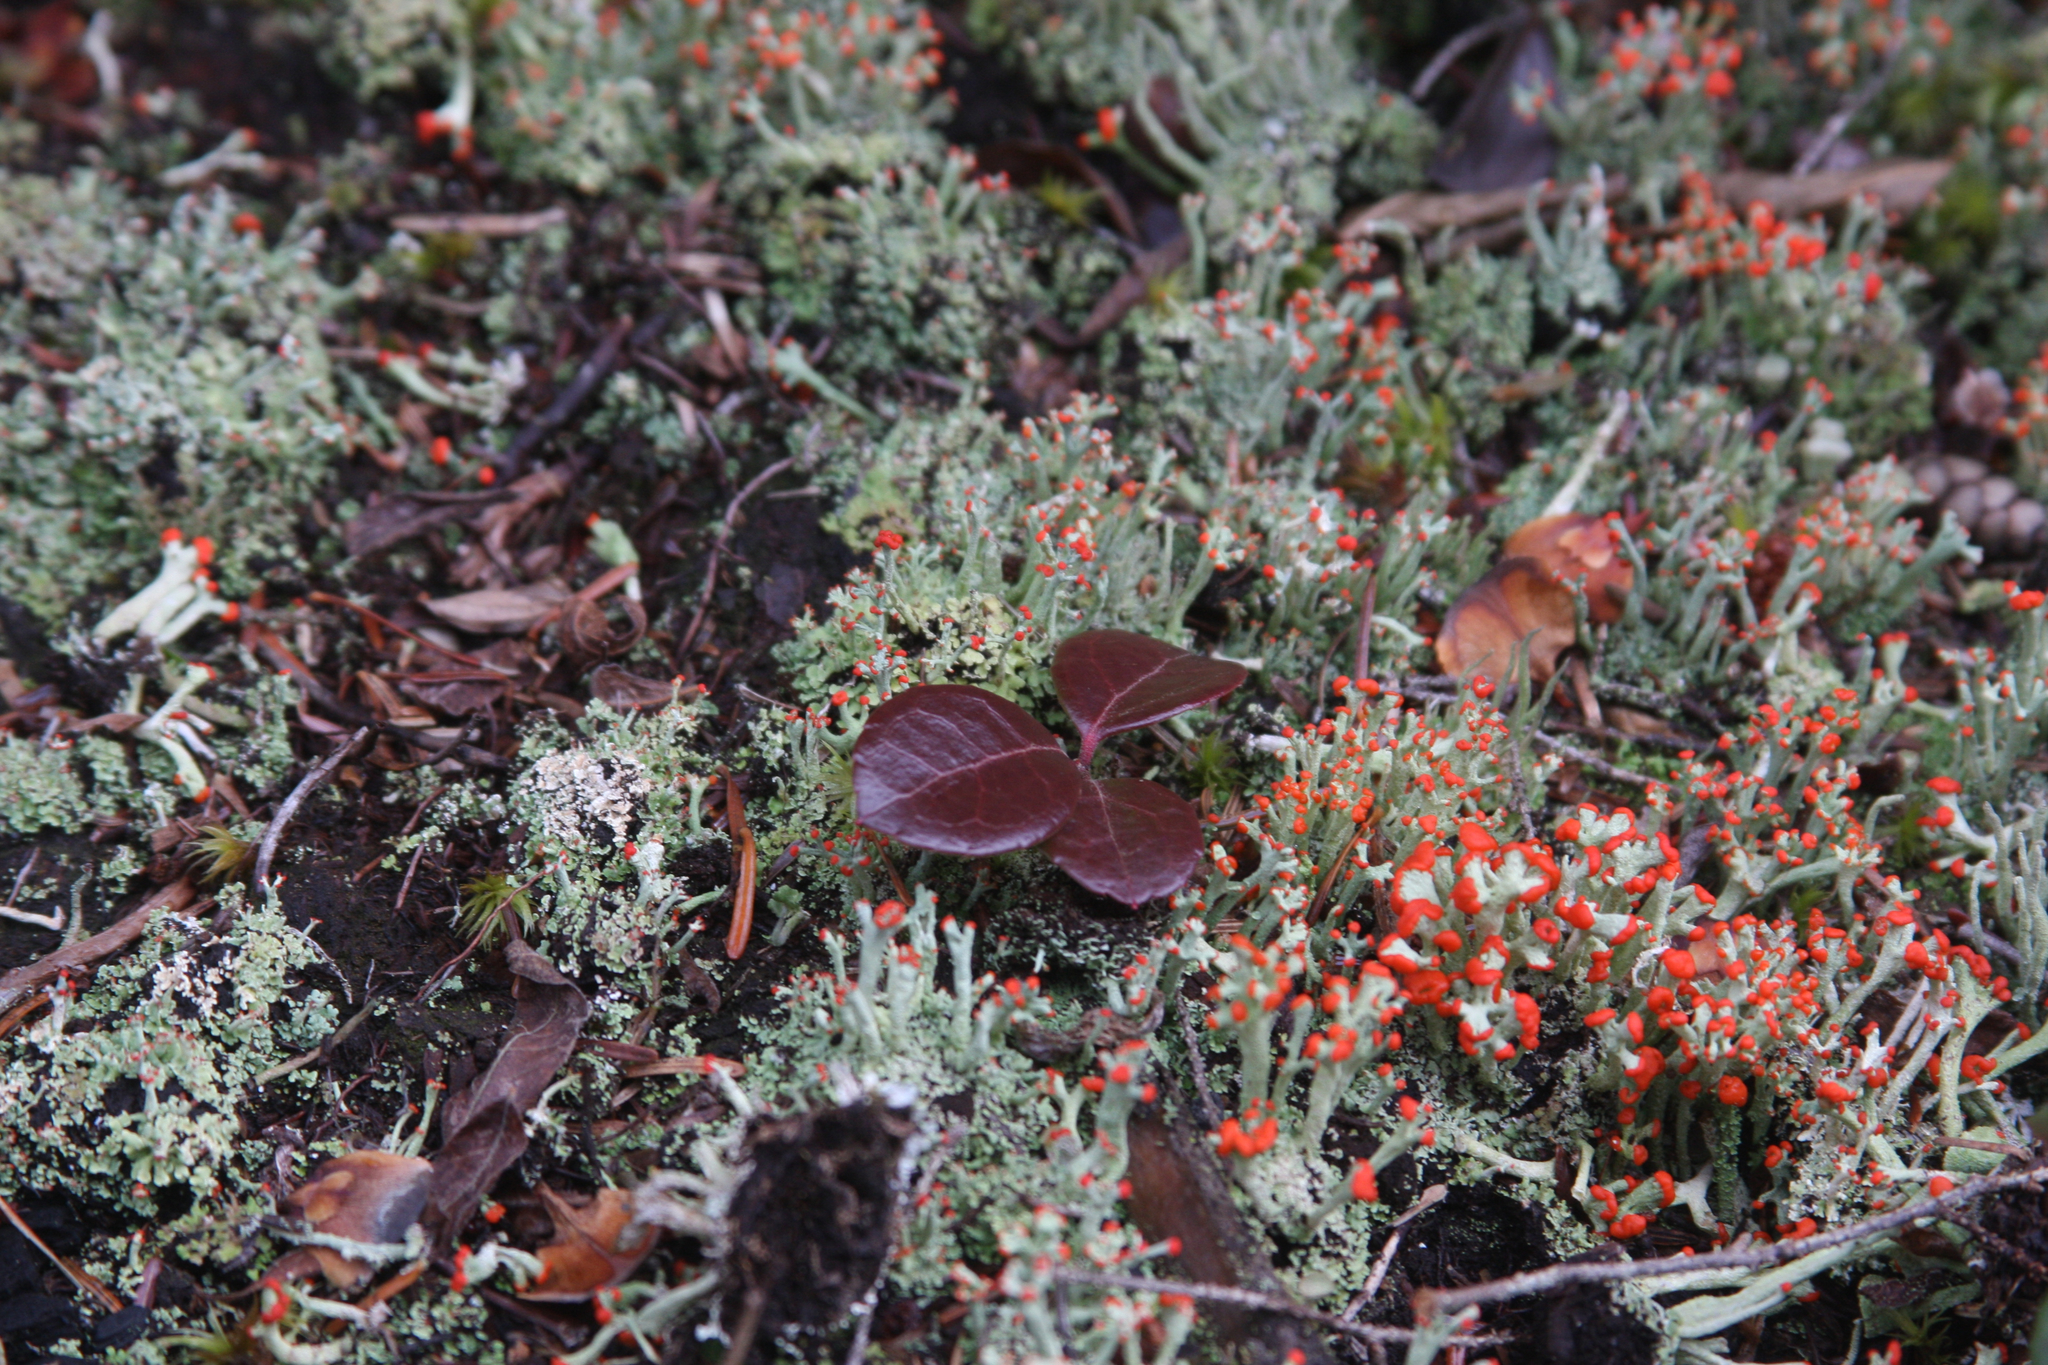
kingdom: Plantae
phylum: Tracheophyta
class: Magnoliopsida
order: Ericales
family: Ericaceae
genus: Gaultheria
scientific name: Gaultheria procumbens
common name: Checkerberry
